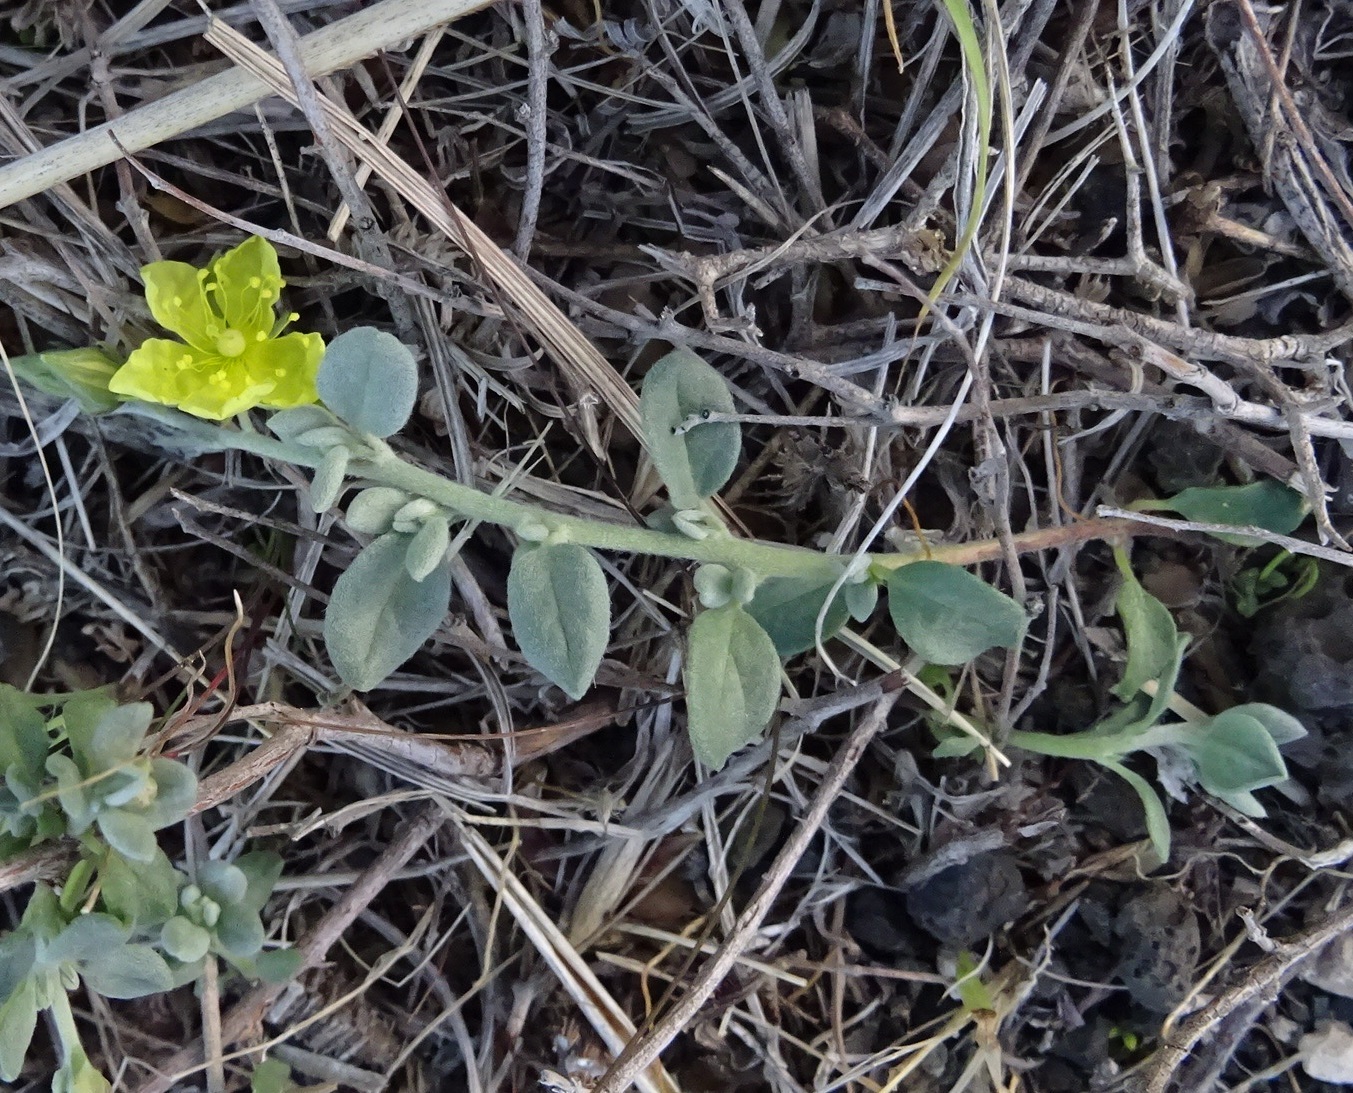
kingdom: Plantae
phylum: Tracheophyta
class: Magnoliopsida
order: Malvales
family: Cistaceae
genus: Helianthemum
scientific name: Helianthemum canariense
